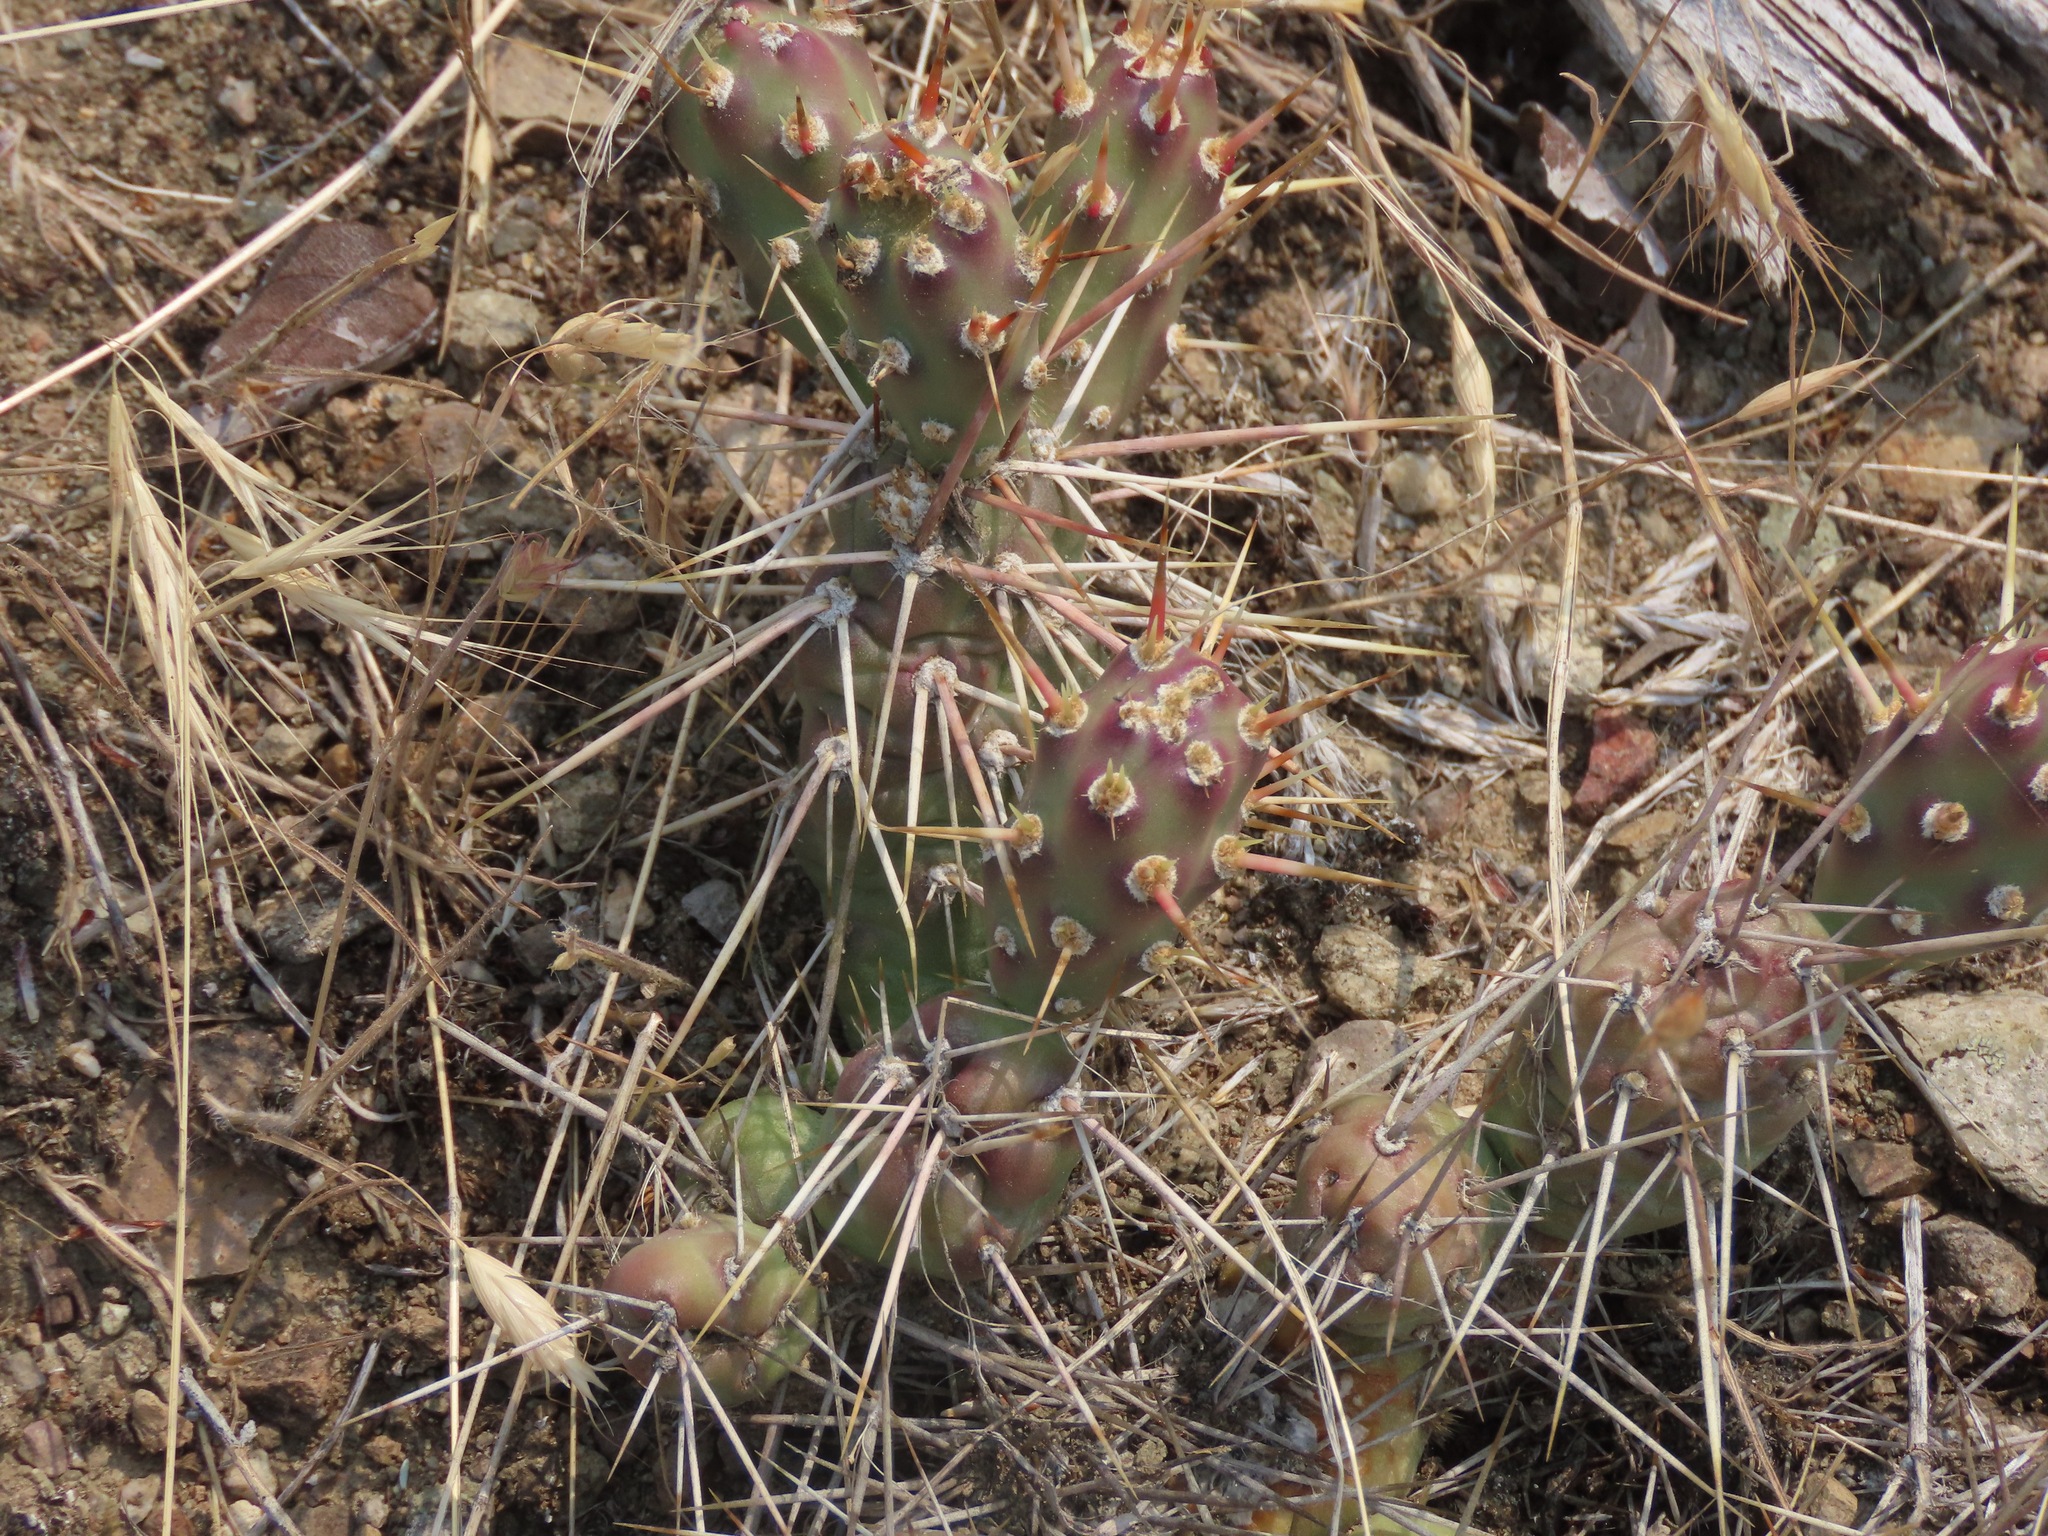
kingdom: Plantae
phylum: Tracheophyta
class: Magnoliopsida
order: Caryophyllales
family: Cactaceae
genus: Opuntia
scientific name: Opuntia fragilis
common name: Brittle cactus
